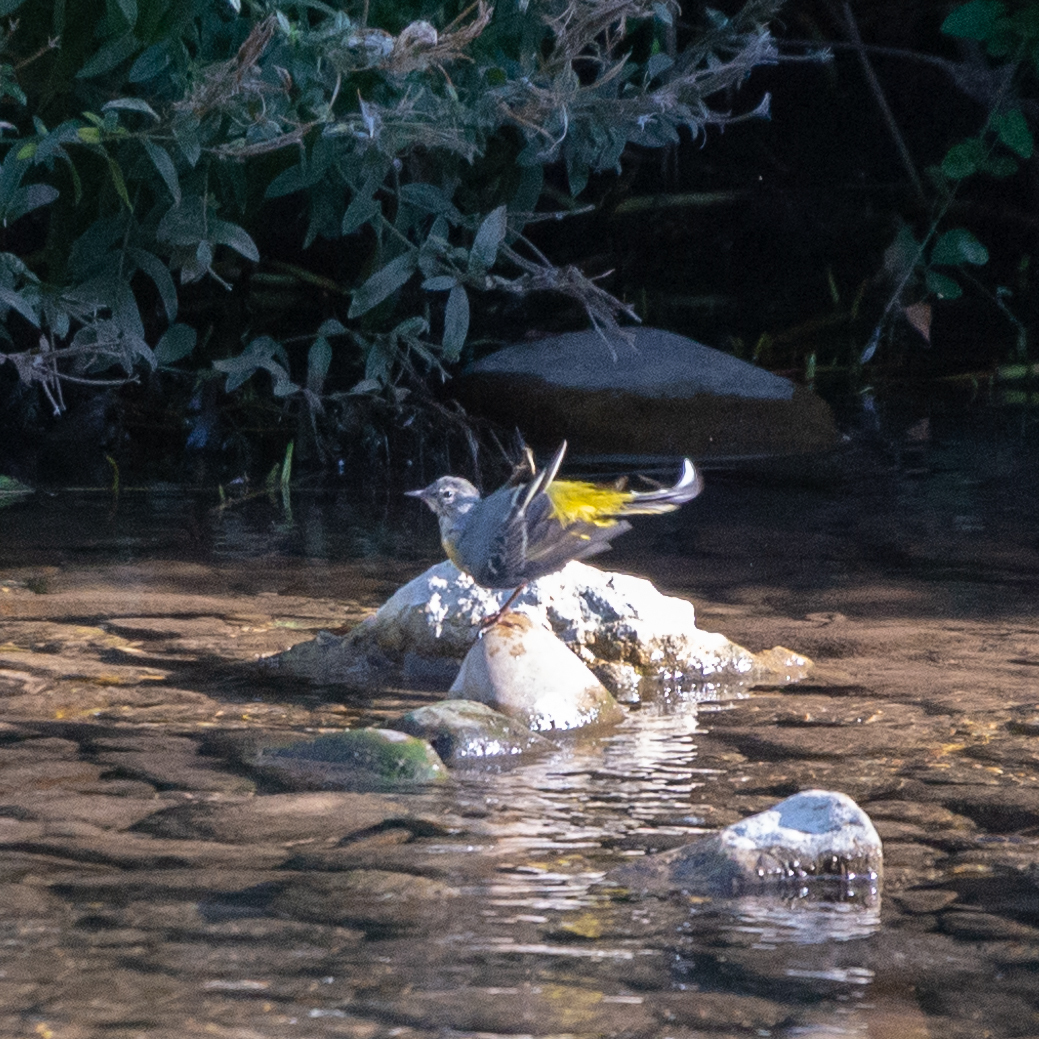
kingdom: Animalia
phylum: Chordata
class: Aves
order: Passeriformes
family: Motacillidae
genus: Motacilla
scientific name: Motacilla cinerea
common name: Grey wagtail
